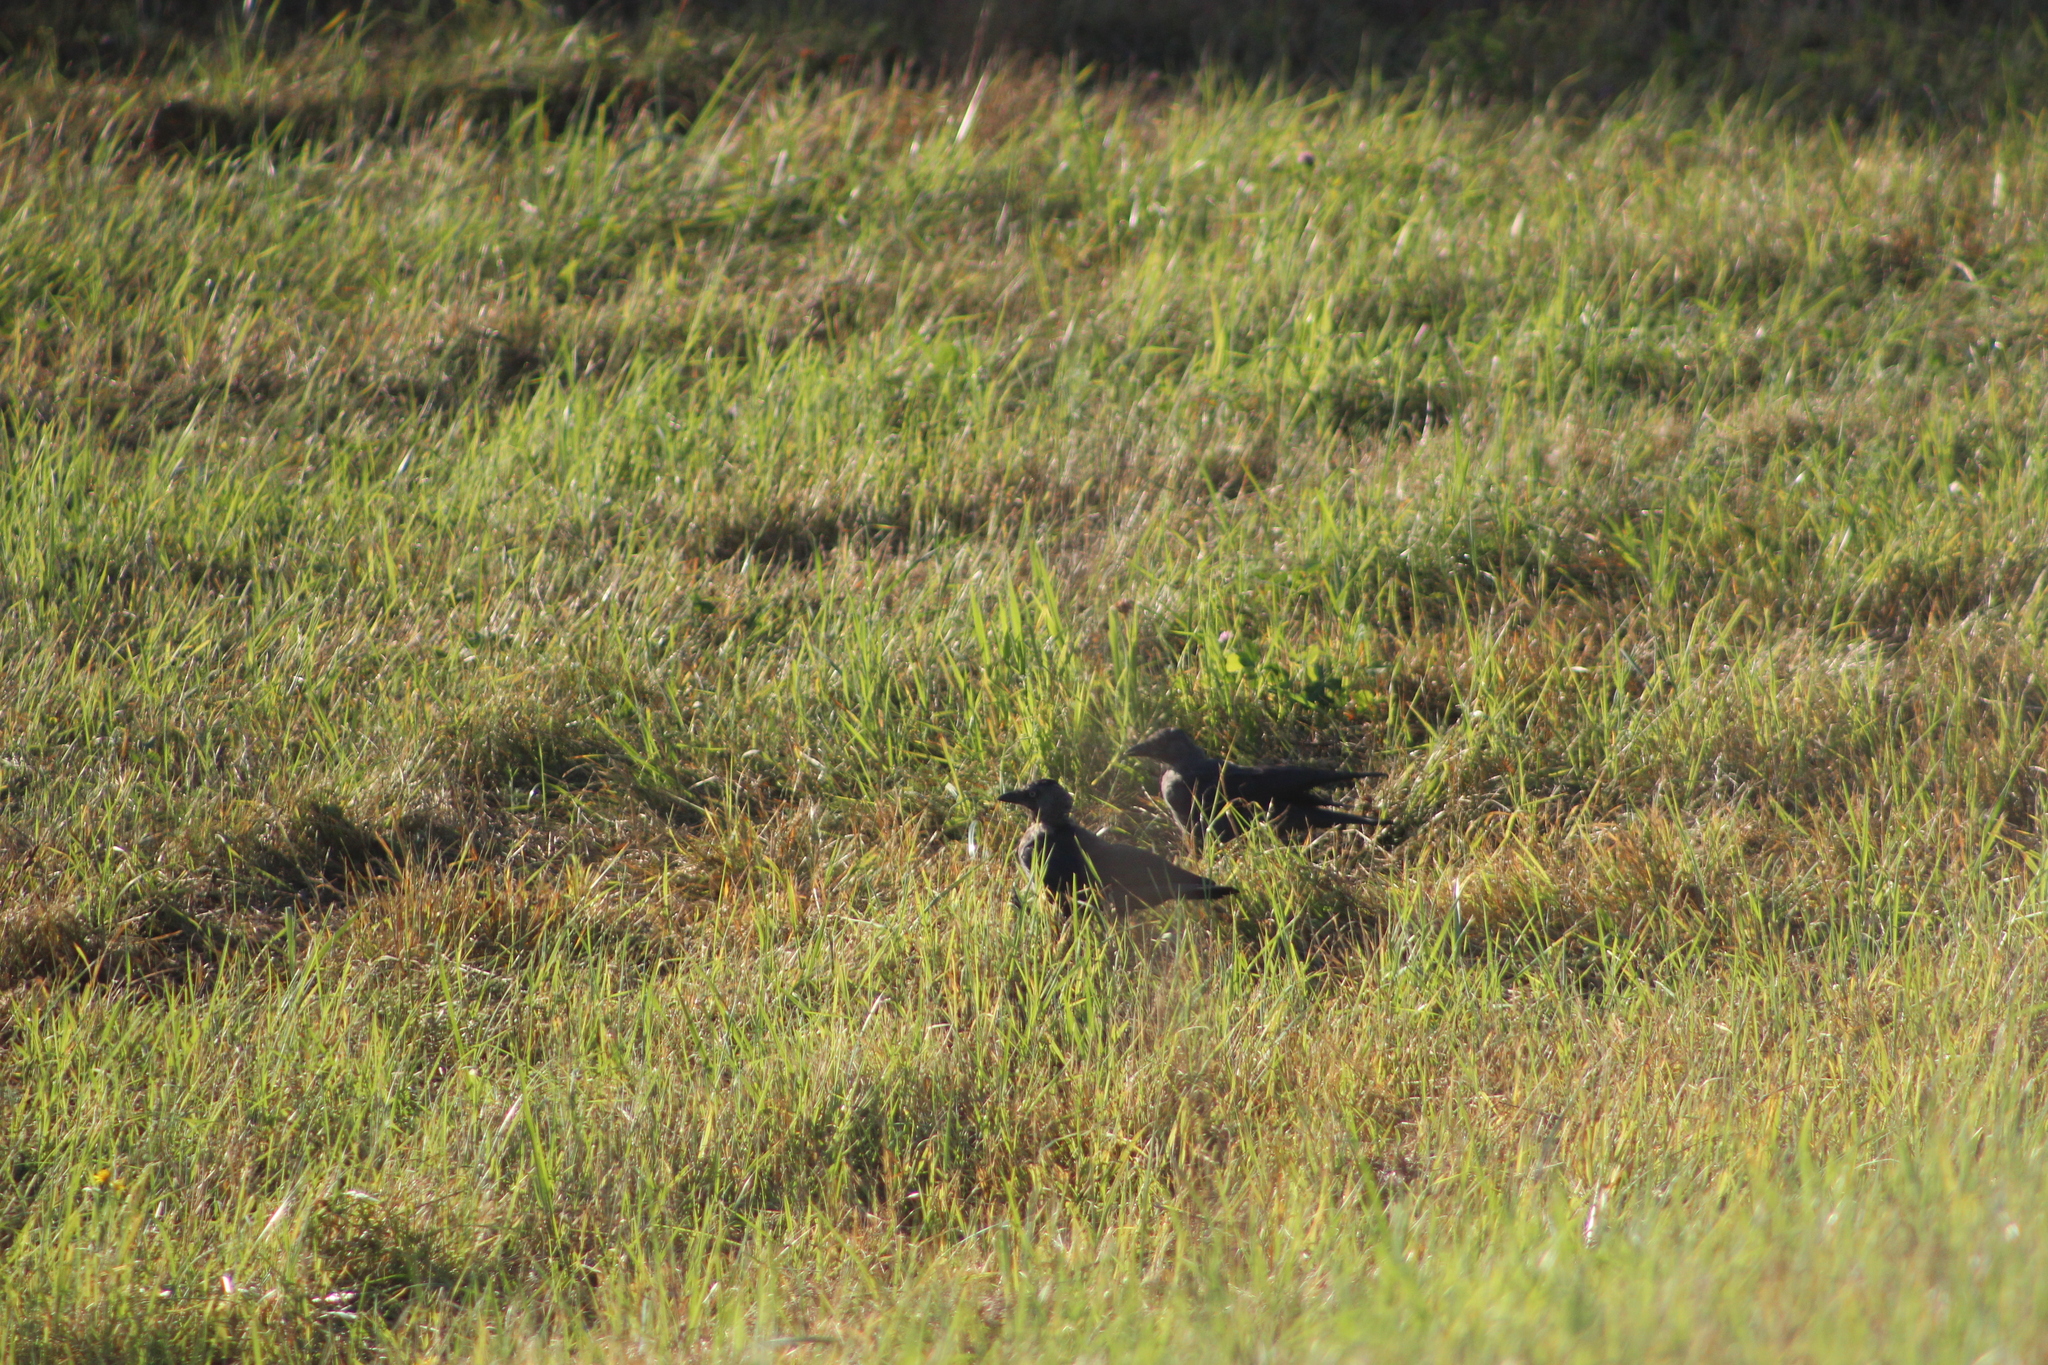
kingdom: Animalia
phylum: Chordata
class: Aves
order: Passeriformes
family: Corvidae
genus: Coloeus
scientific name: Coloeus monedula
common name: Western jackdaw
